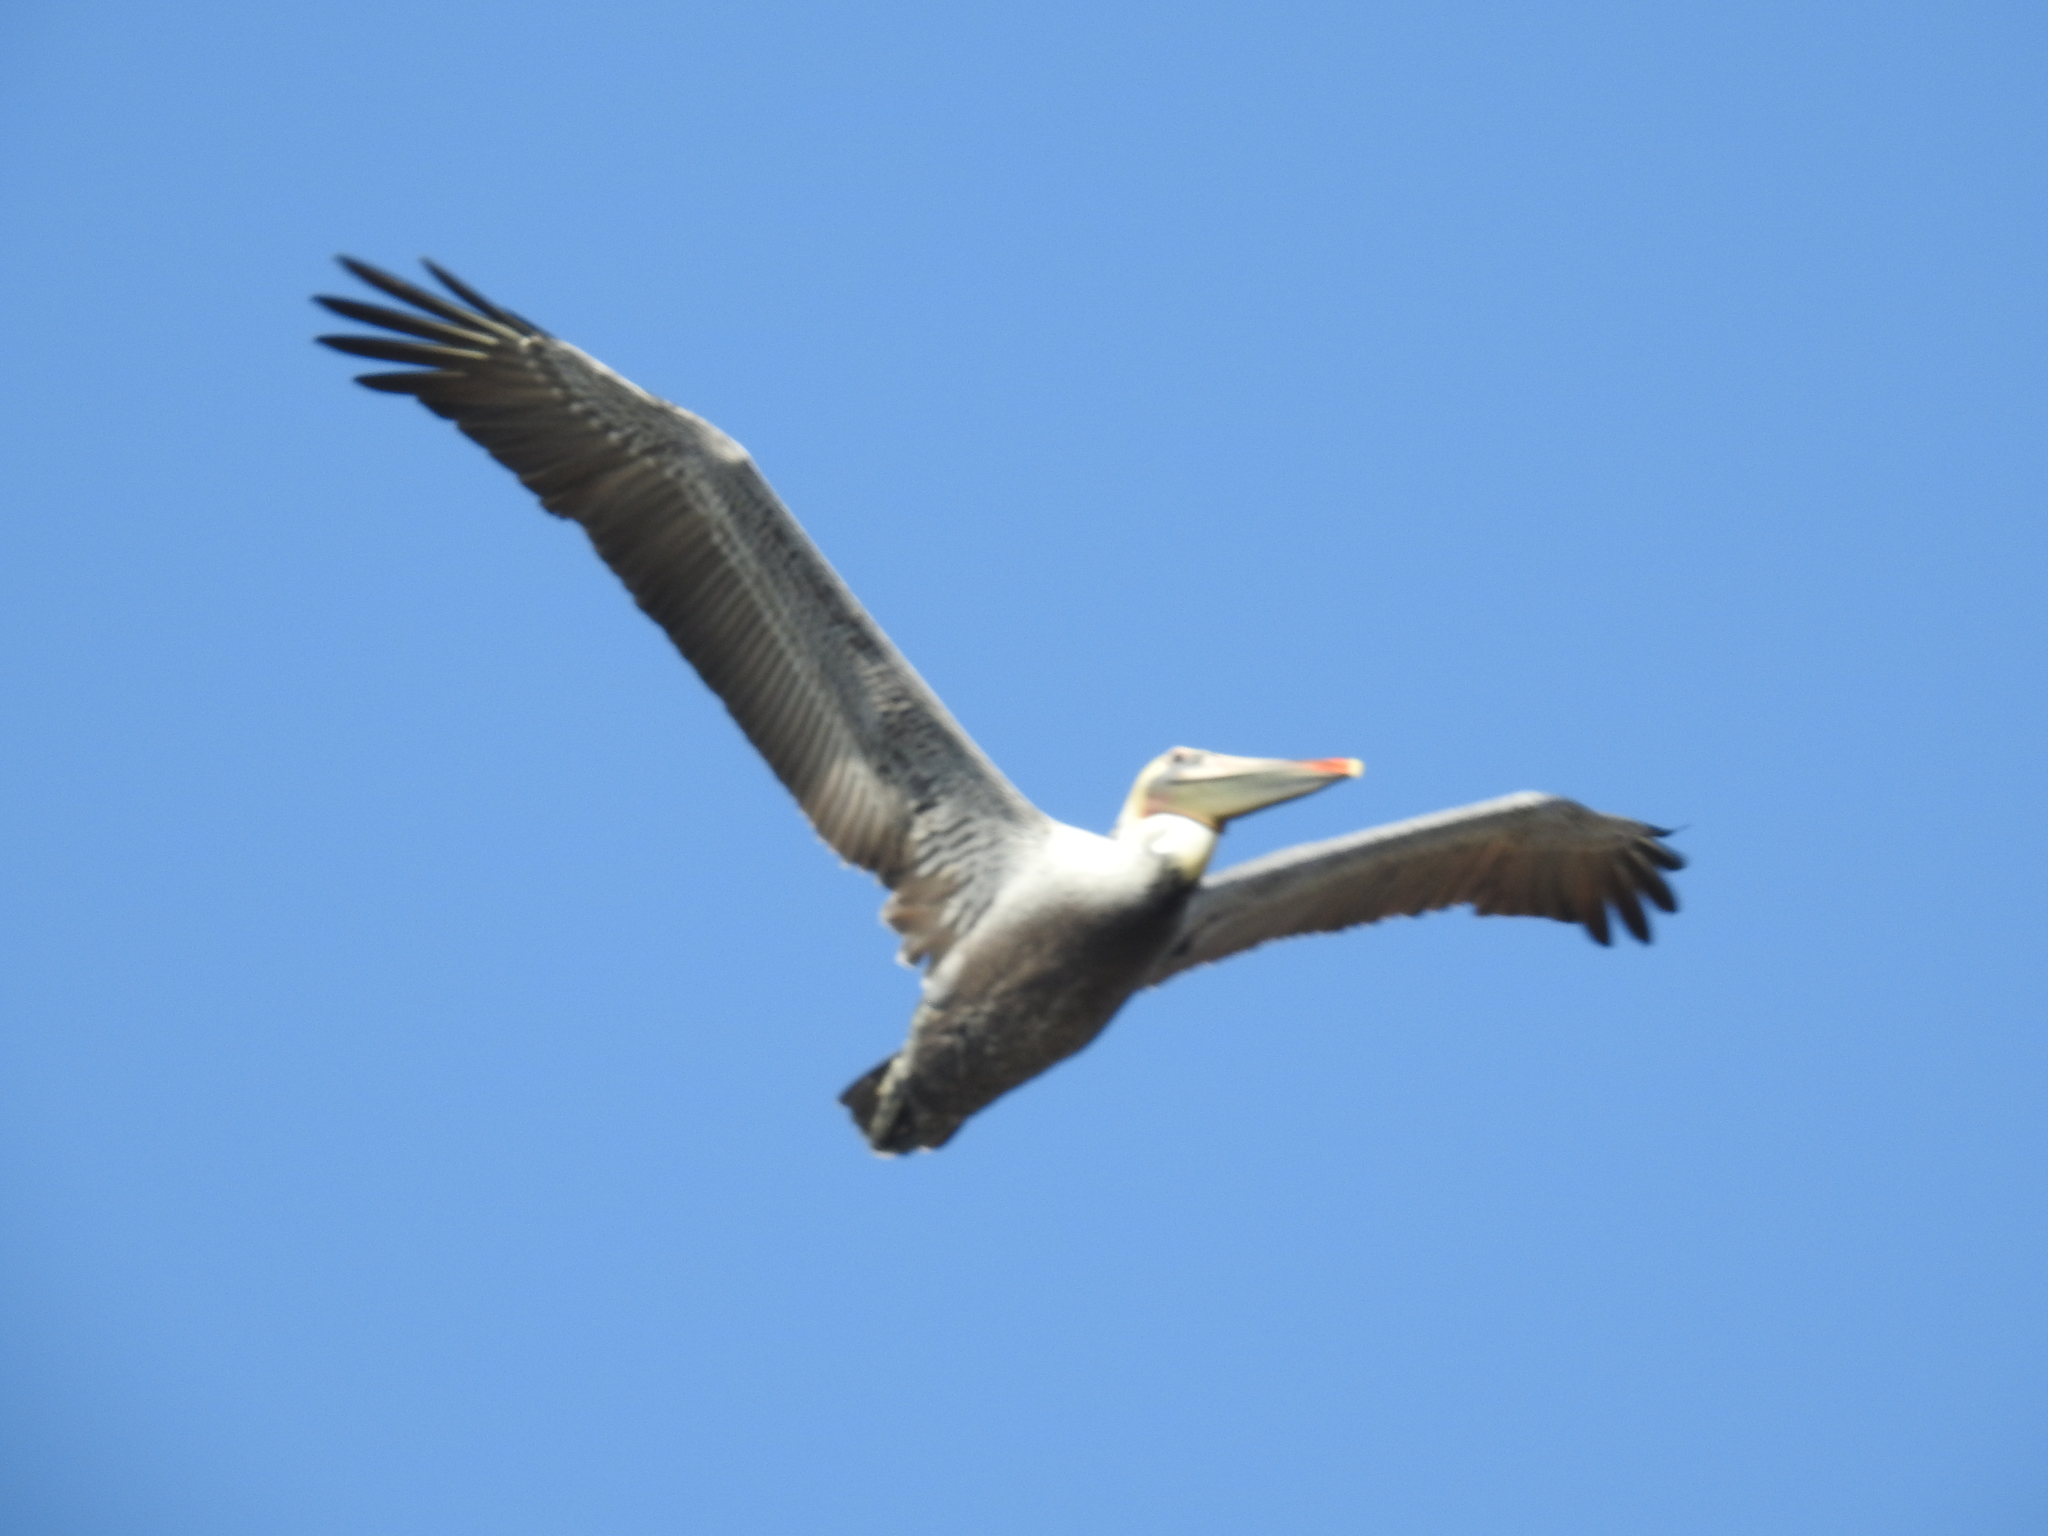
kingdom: Animalia
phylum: Chordata
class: Aves
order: Pelecaniformes
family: Pelecanidae
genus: Pelecanus
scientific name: Pelecanus occidentalis
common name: Brown pelican
